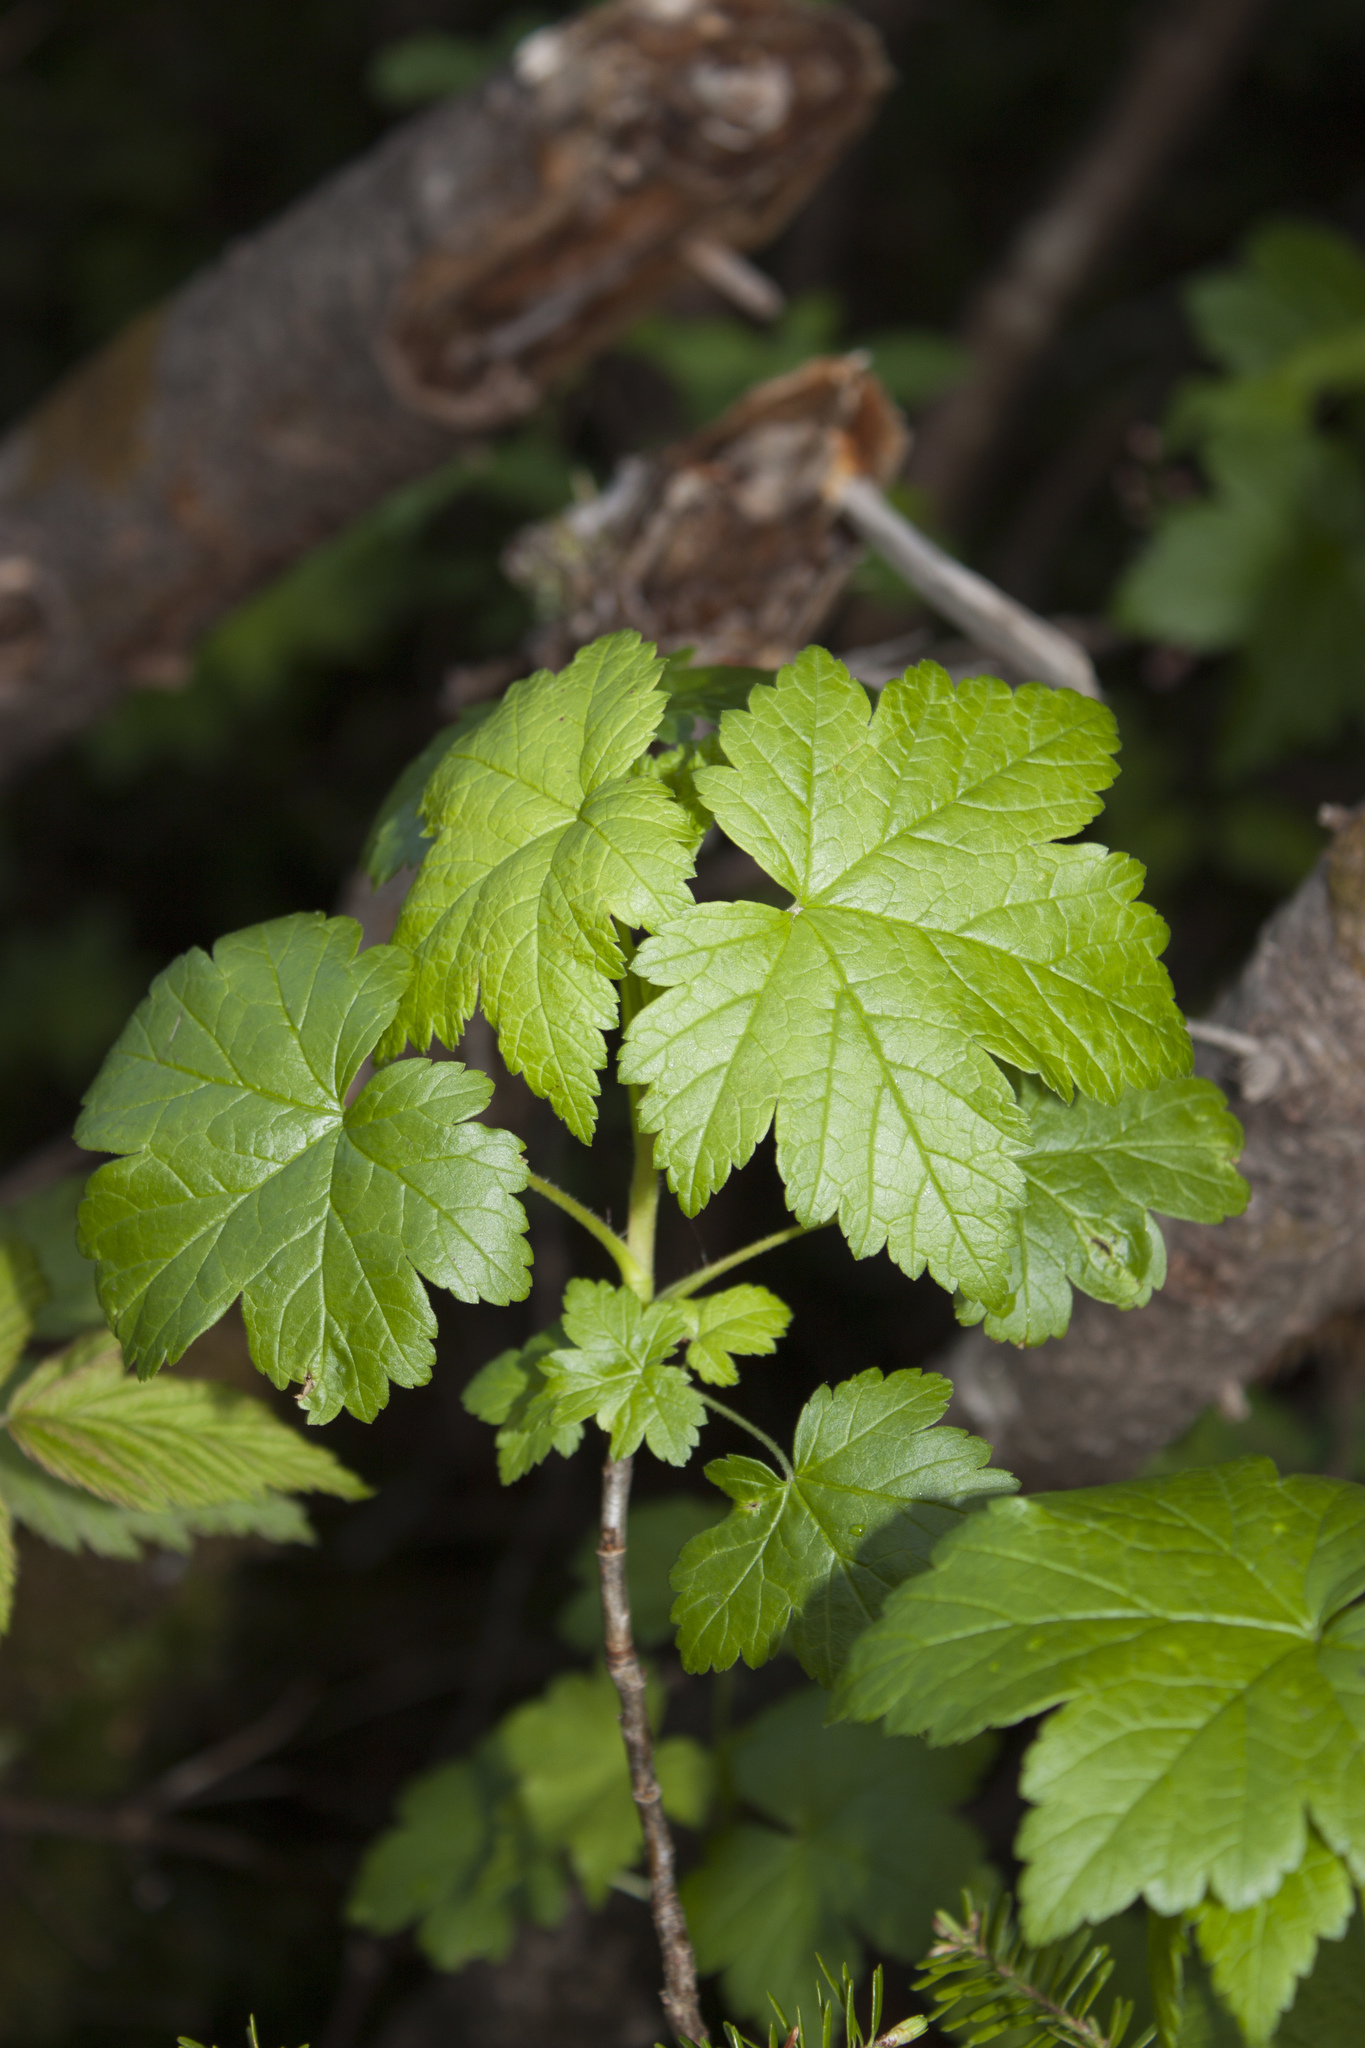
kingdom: Plantae
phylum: Tracheophyta
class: Magnoliopsida
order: Saxifragales
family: Grossulariaceae
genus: Ribes
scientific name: Ribes glandulosum
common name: Skunk currant
